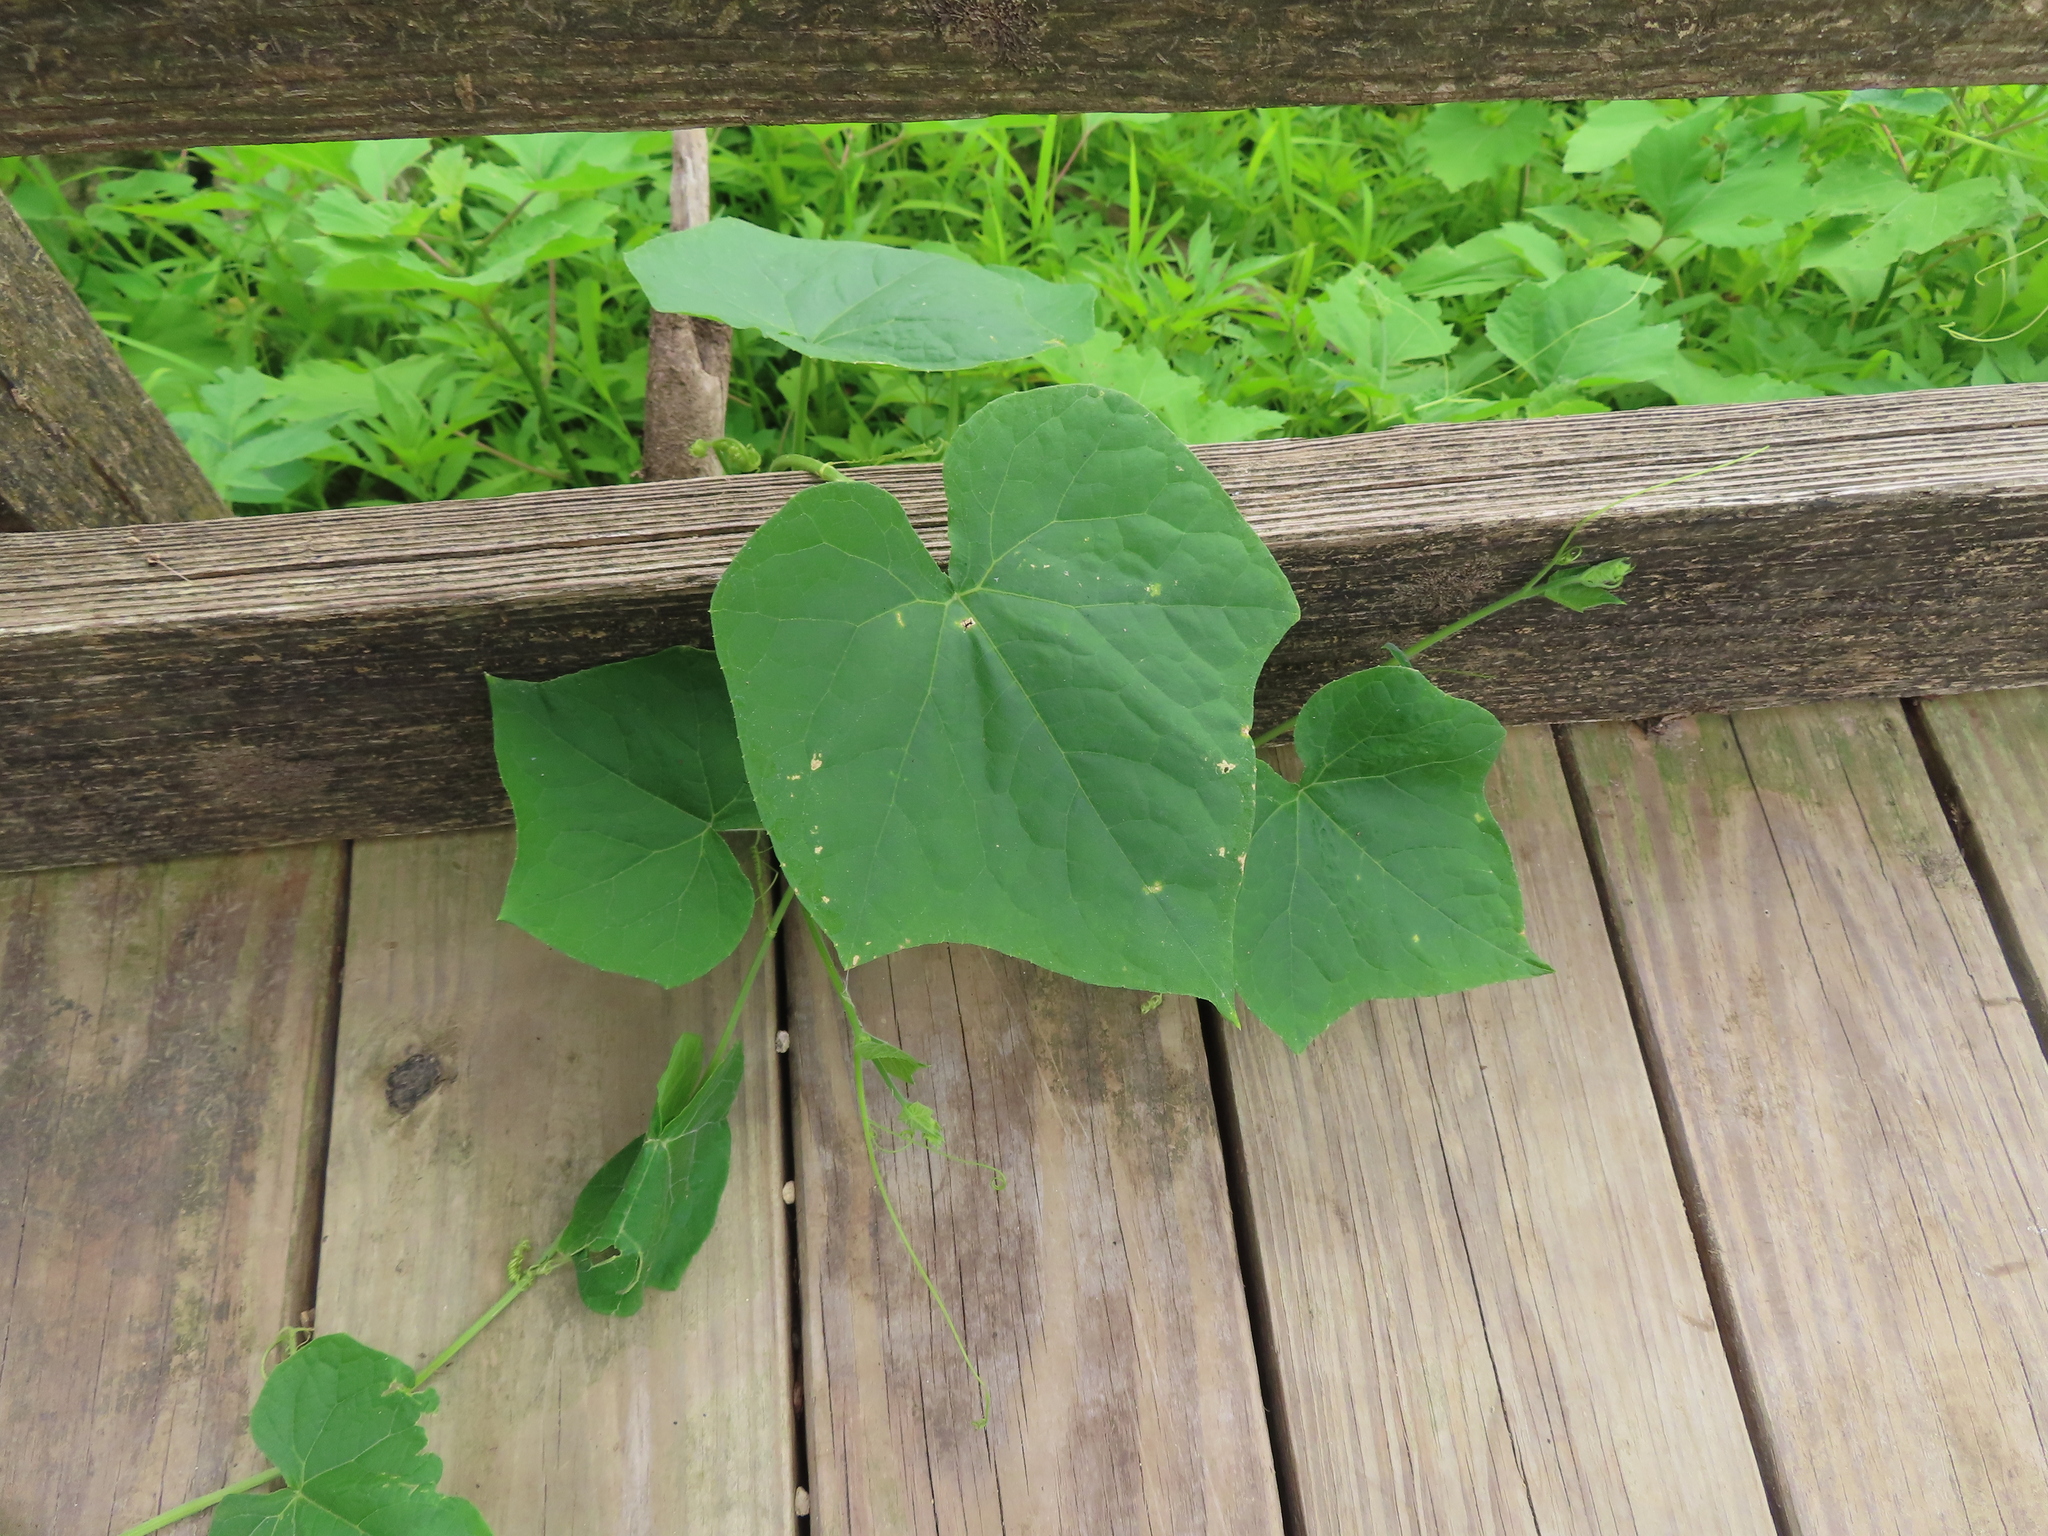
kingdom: Plantae
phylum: Tracheophyta
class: Magnoliopsida
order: Cucurbitales
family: Cucurbitaceae
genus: Sicyos
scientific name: Sicyos angulatus
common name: Angled burr cucumber
